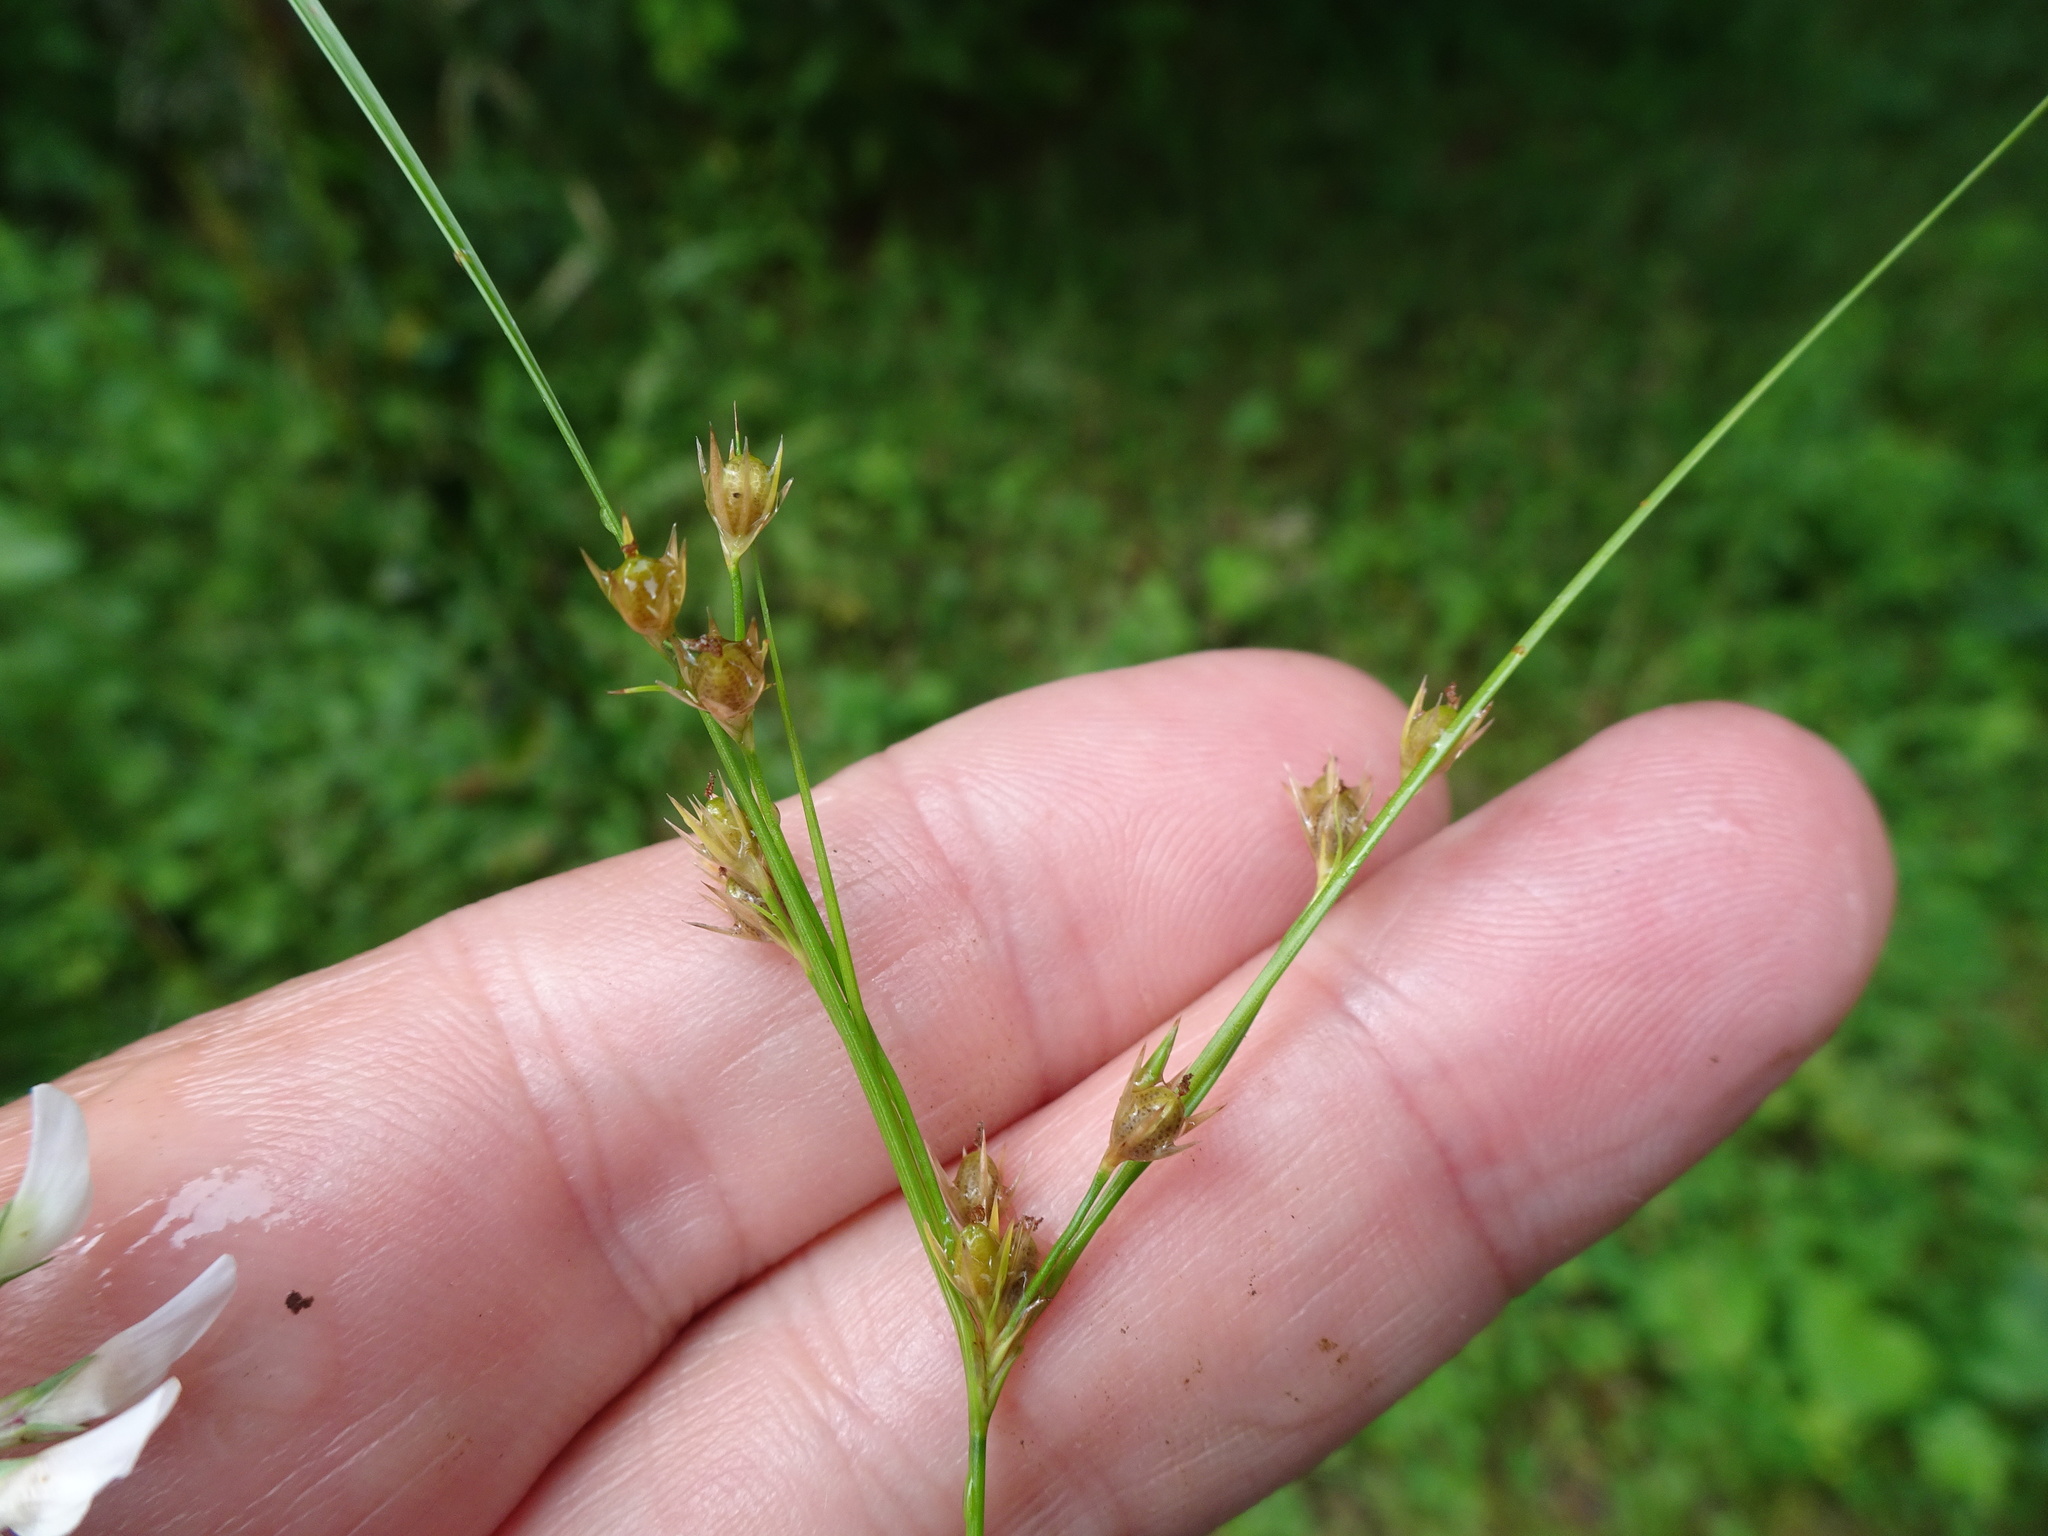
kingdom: Plantae
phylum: Tracheophyta
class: Liliopsida
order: Poales
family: Juncaceae
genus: Juncus
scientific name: Juncus tenuis
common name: Slender rush
